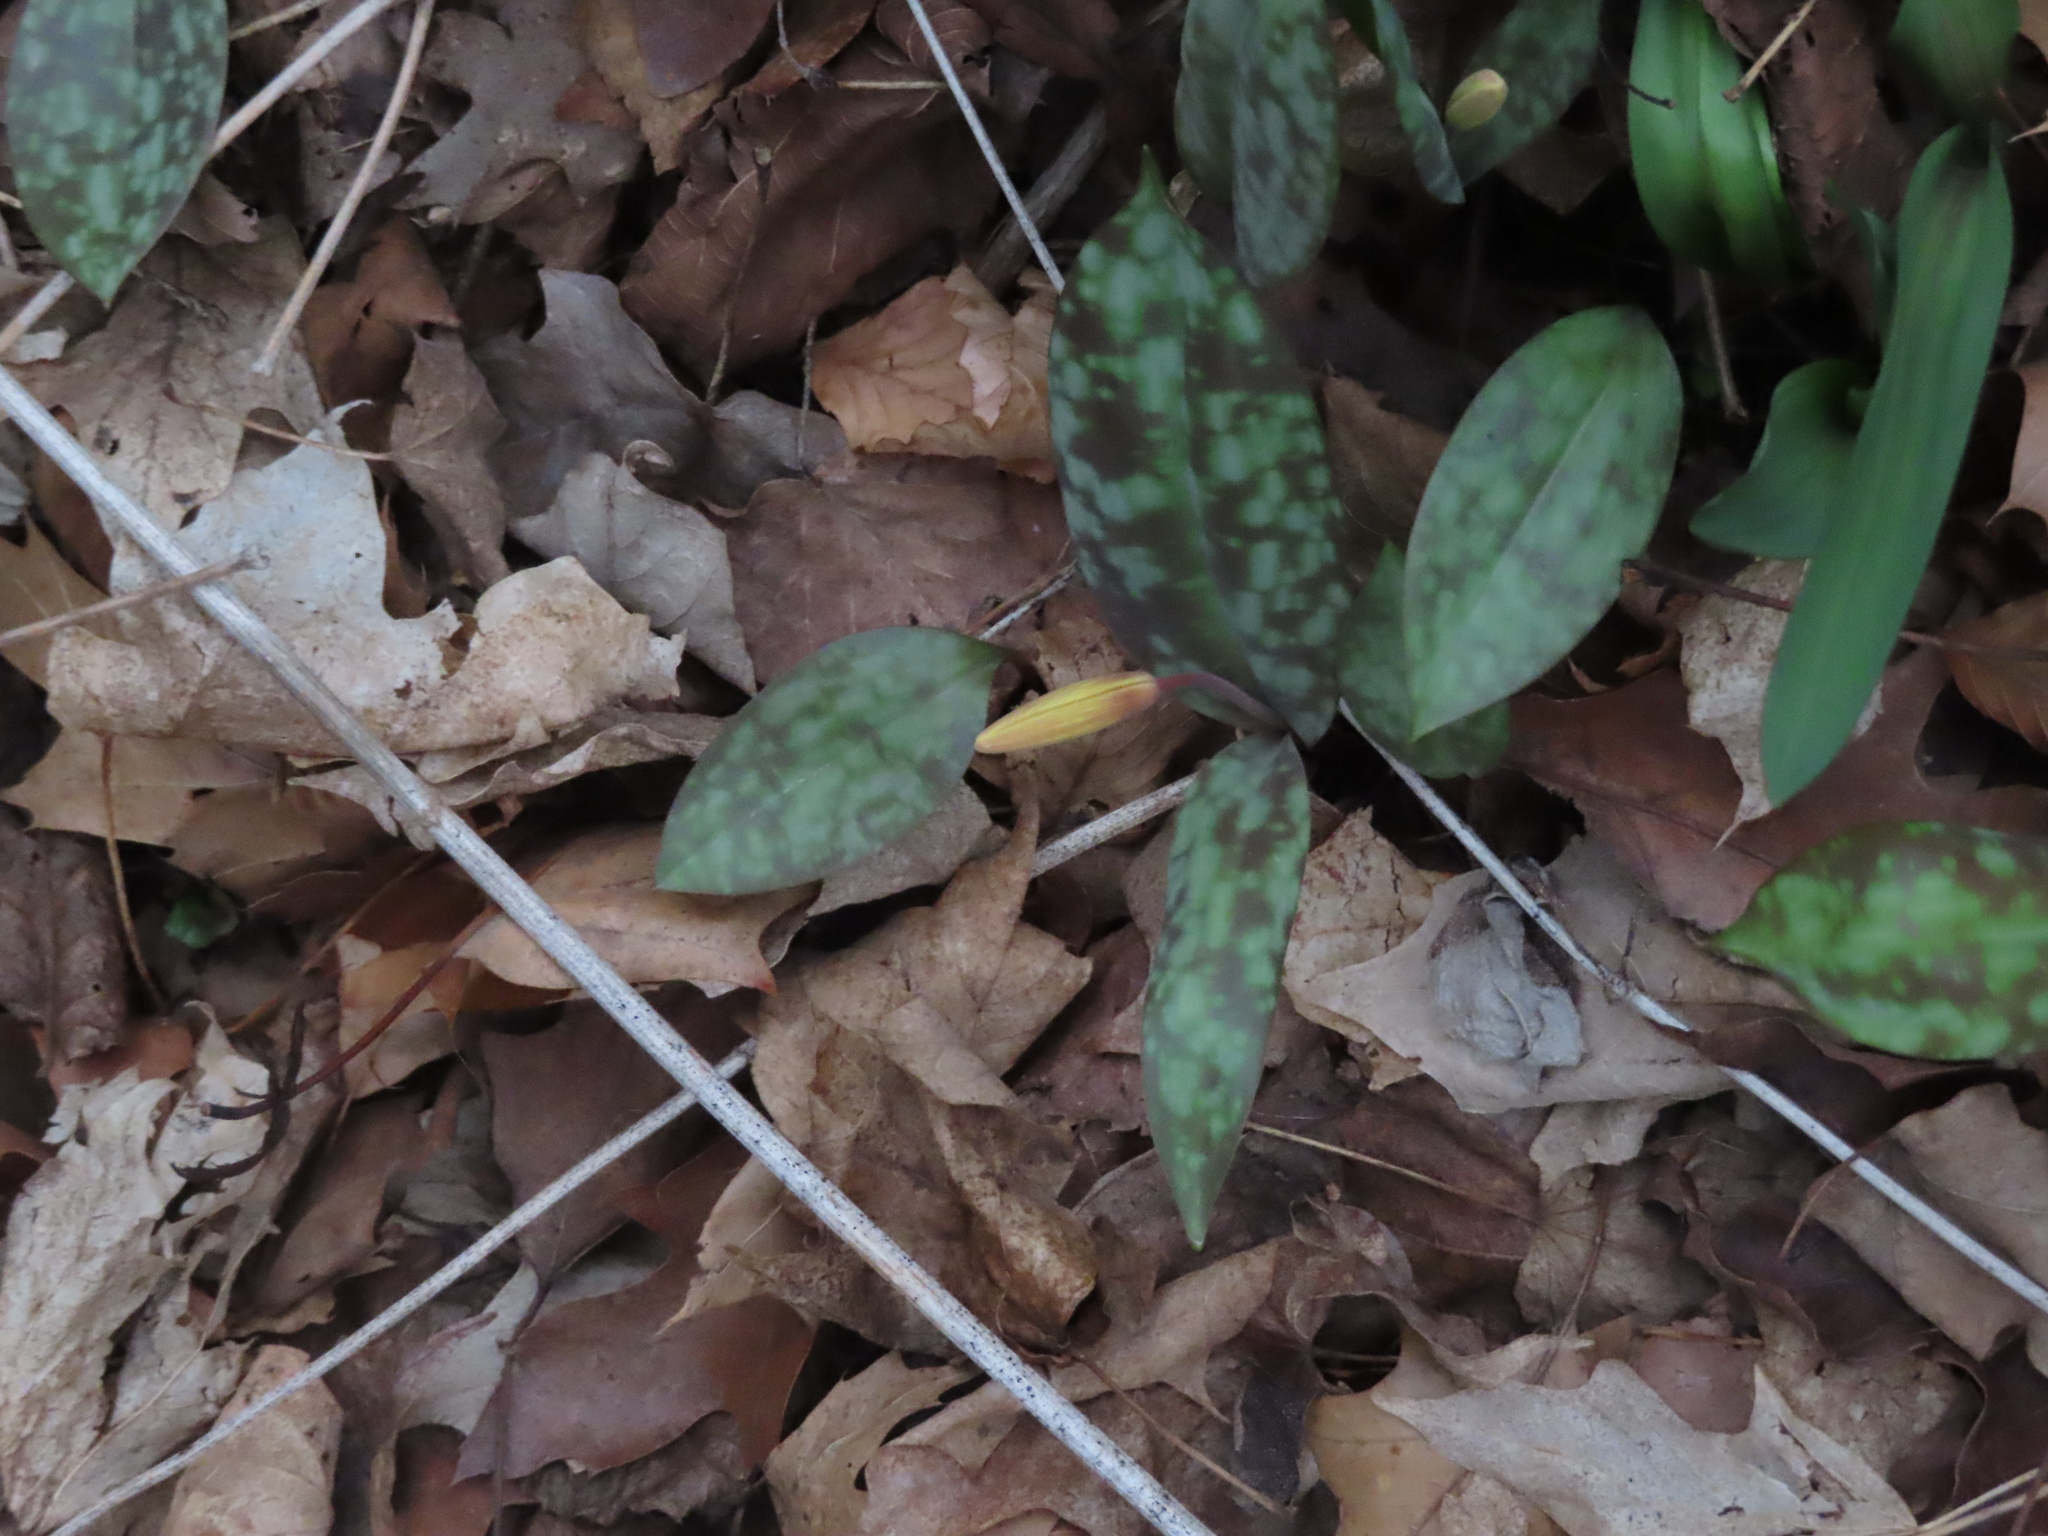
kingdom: Plantae
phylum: Tracheophyta
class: Liliopsida
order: Liliales
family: Liliaceae
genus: Erythronium
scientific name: Erythronium americanum
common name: Yellow adder's-tongue
